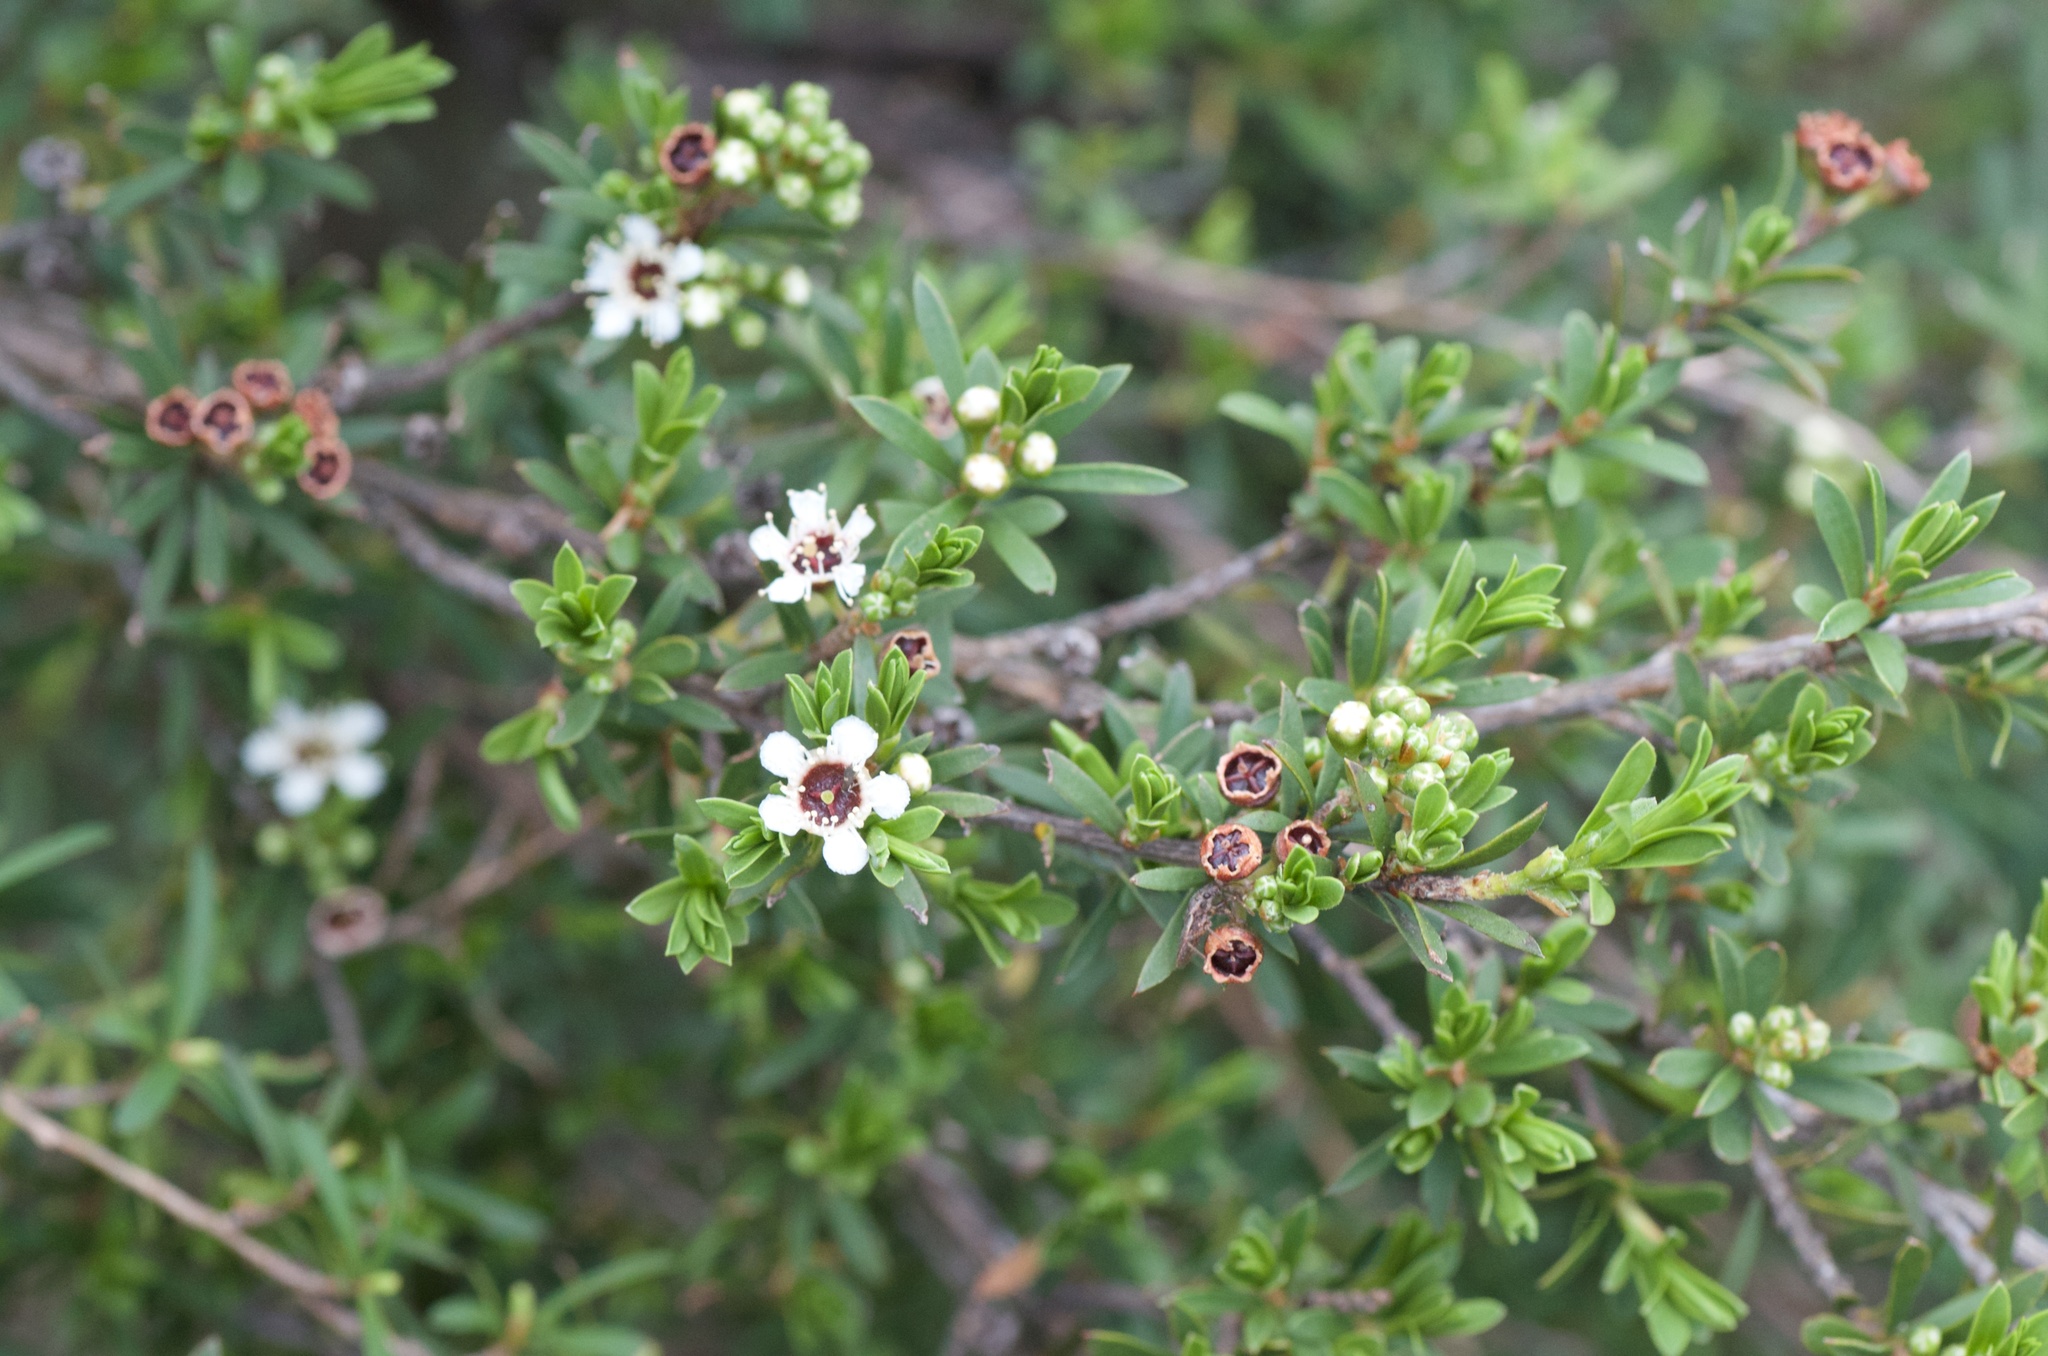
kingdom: Plantae
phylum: Tracheophyta
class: Magnoliopsida
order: Myrtales
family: Myrtaceae
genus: Kunzea
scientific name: Kunzea robusta
